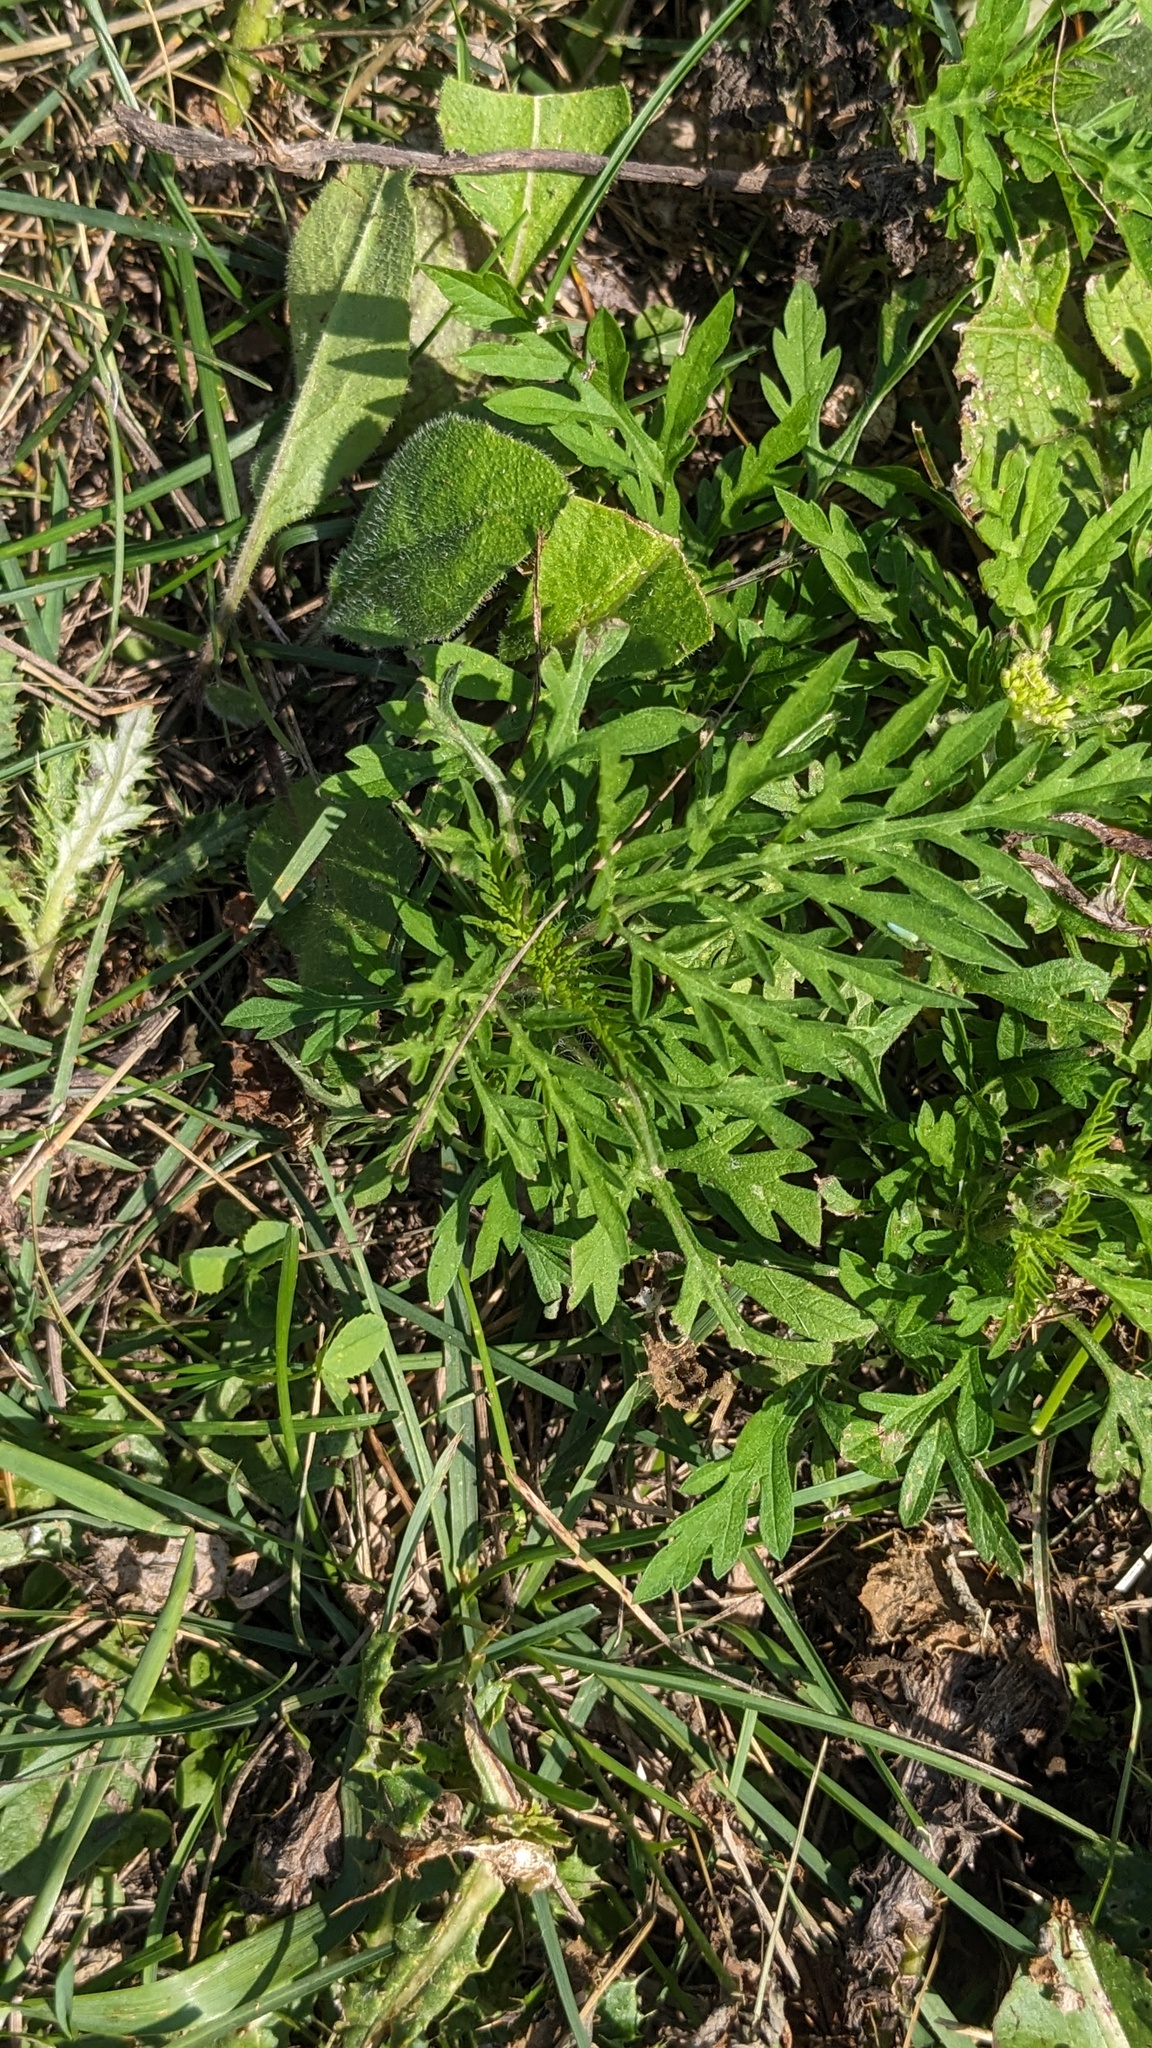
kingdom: Plantae
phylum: Tracheophyta
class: Magnoliopsida
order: Asterales
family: Asteraceae
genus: Ambrosia
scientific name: Ambrosia artemisiifolia
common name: Annual ragweed
